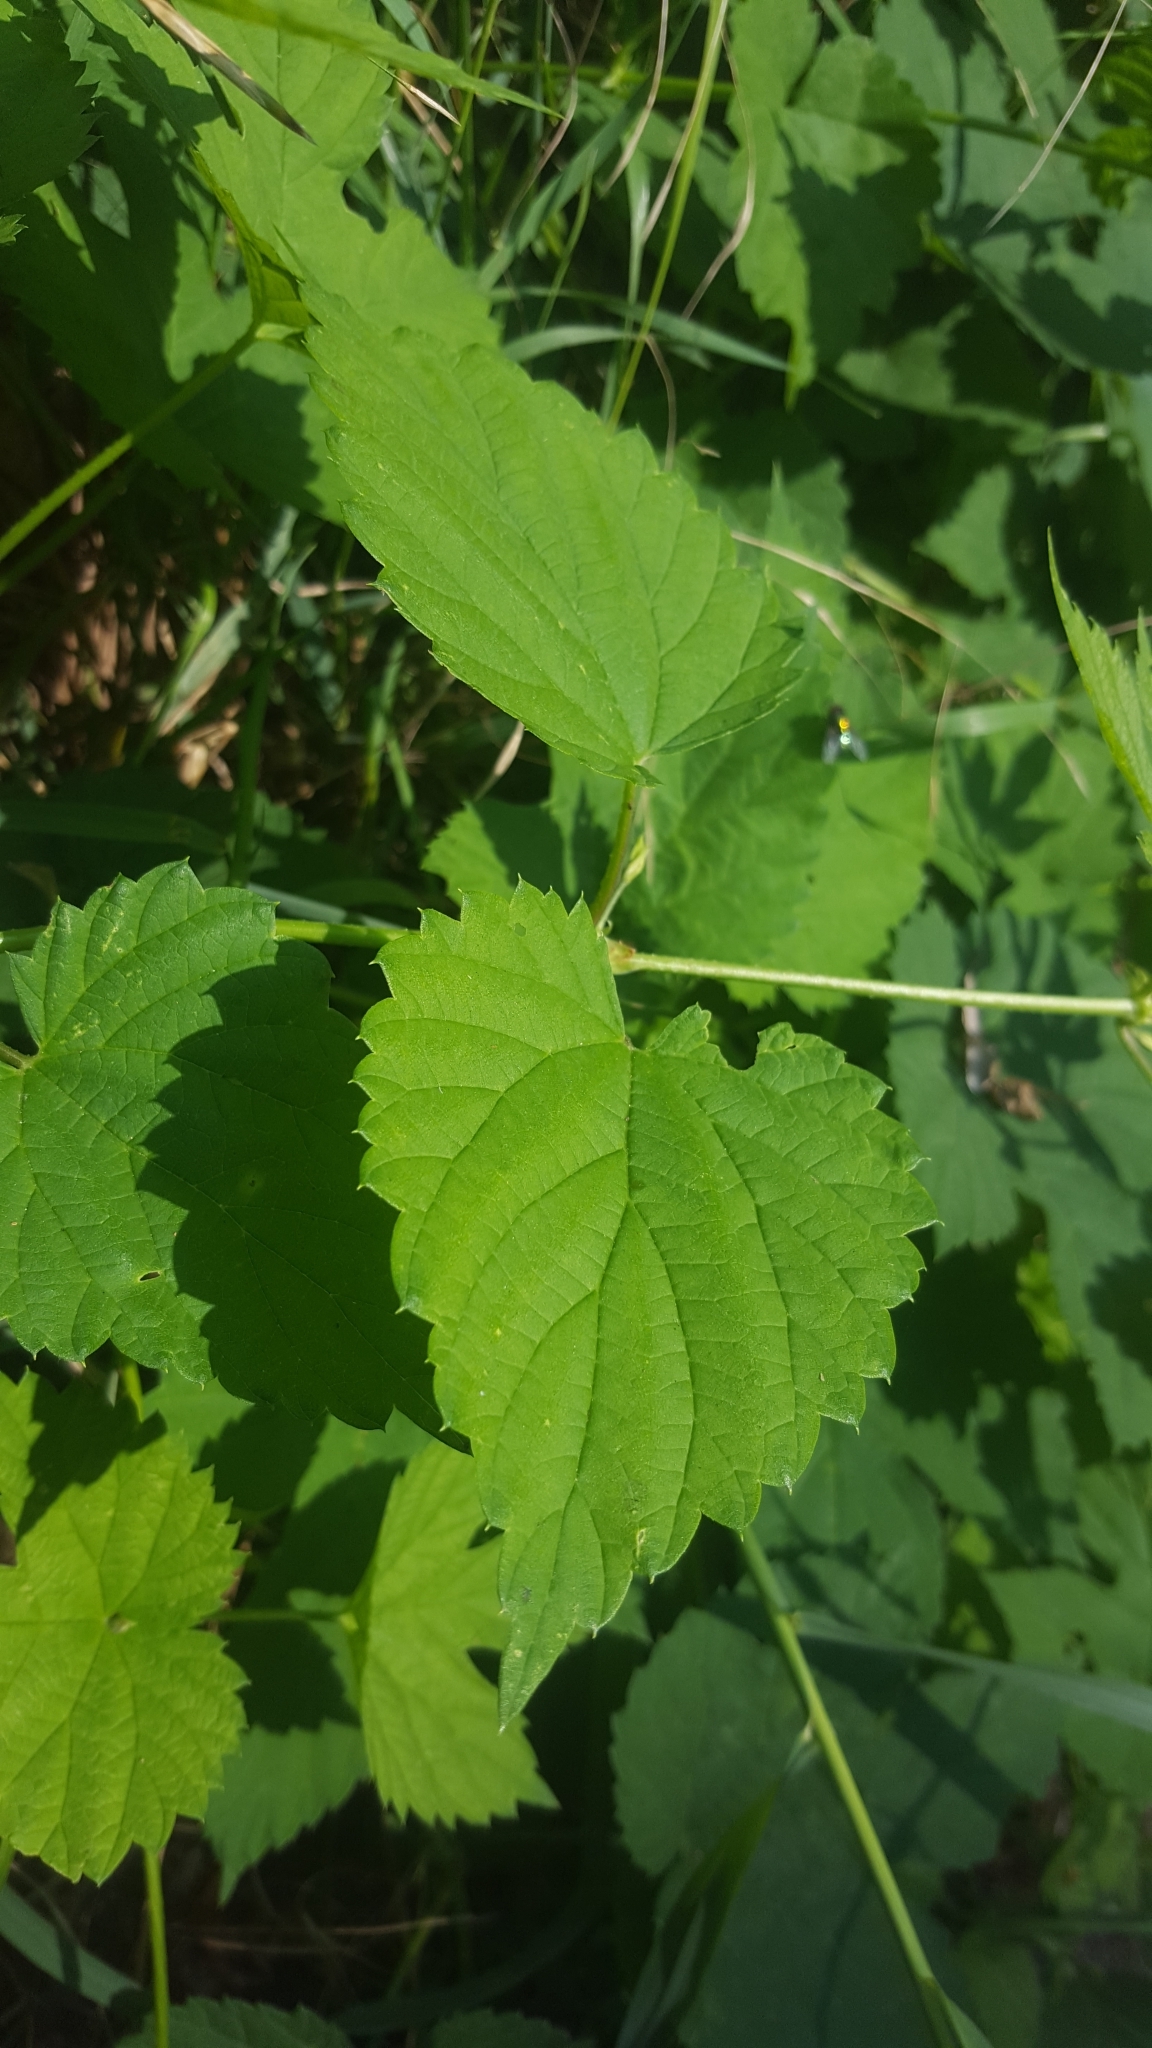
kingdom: Plantae
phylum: Tracheophyta
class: Magnoliopsida
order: Rosales
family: Cannabaceae
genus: Humulus
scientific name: Humulus lupulus
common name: Hop
